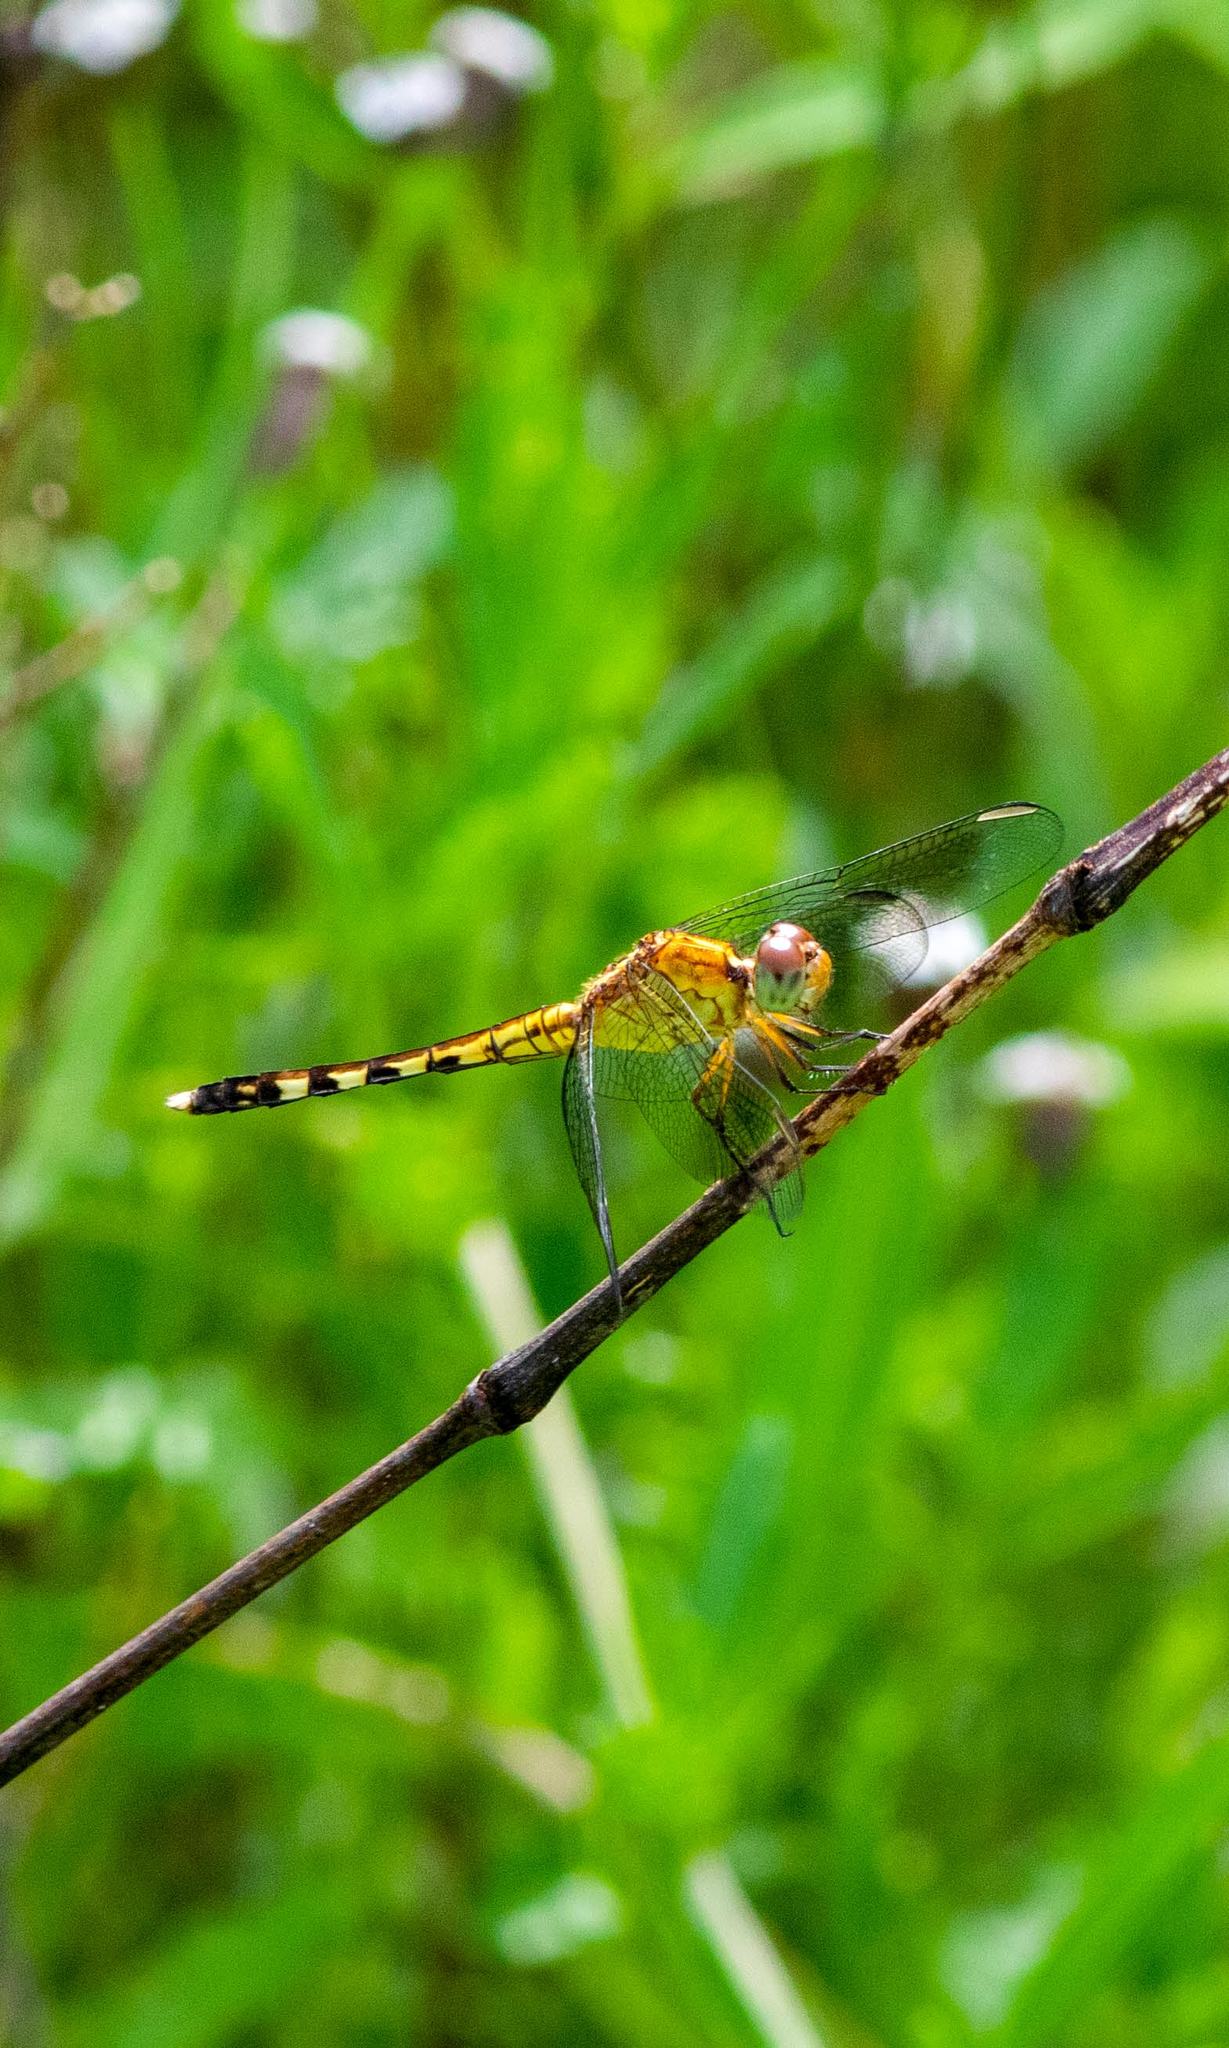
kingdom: Animalia
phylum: Arthropoda
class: Insecta
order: Odonata
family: Libellulidae
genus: Erythrodiplax
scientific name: Erythrodiplax umbrata
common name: Band-winged dragonlet
